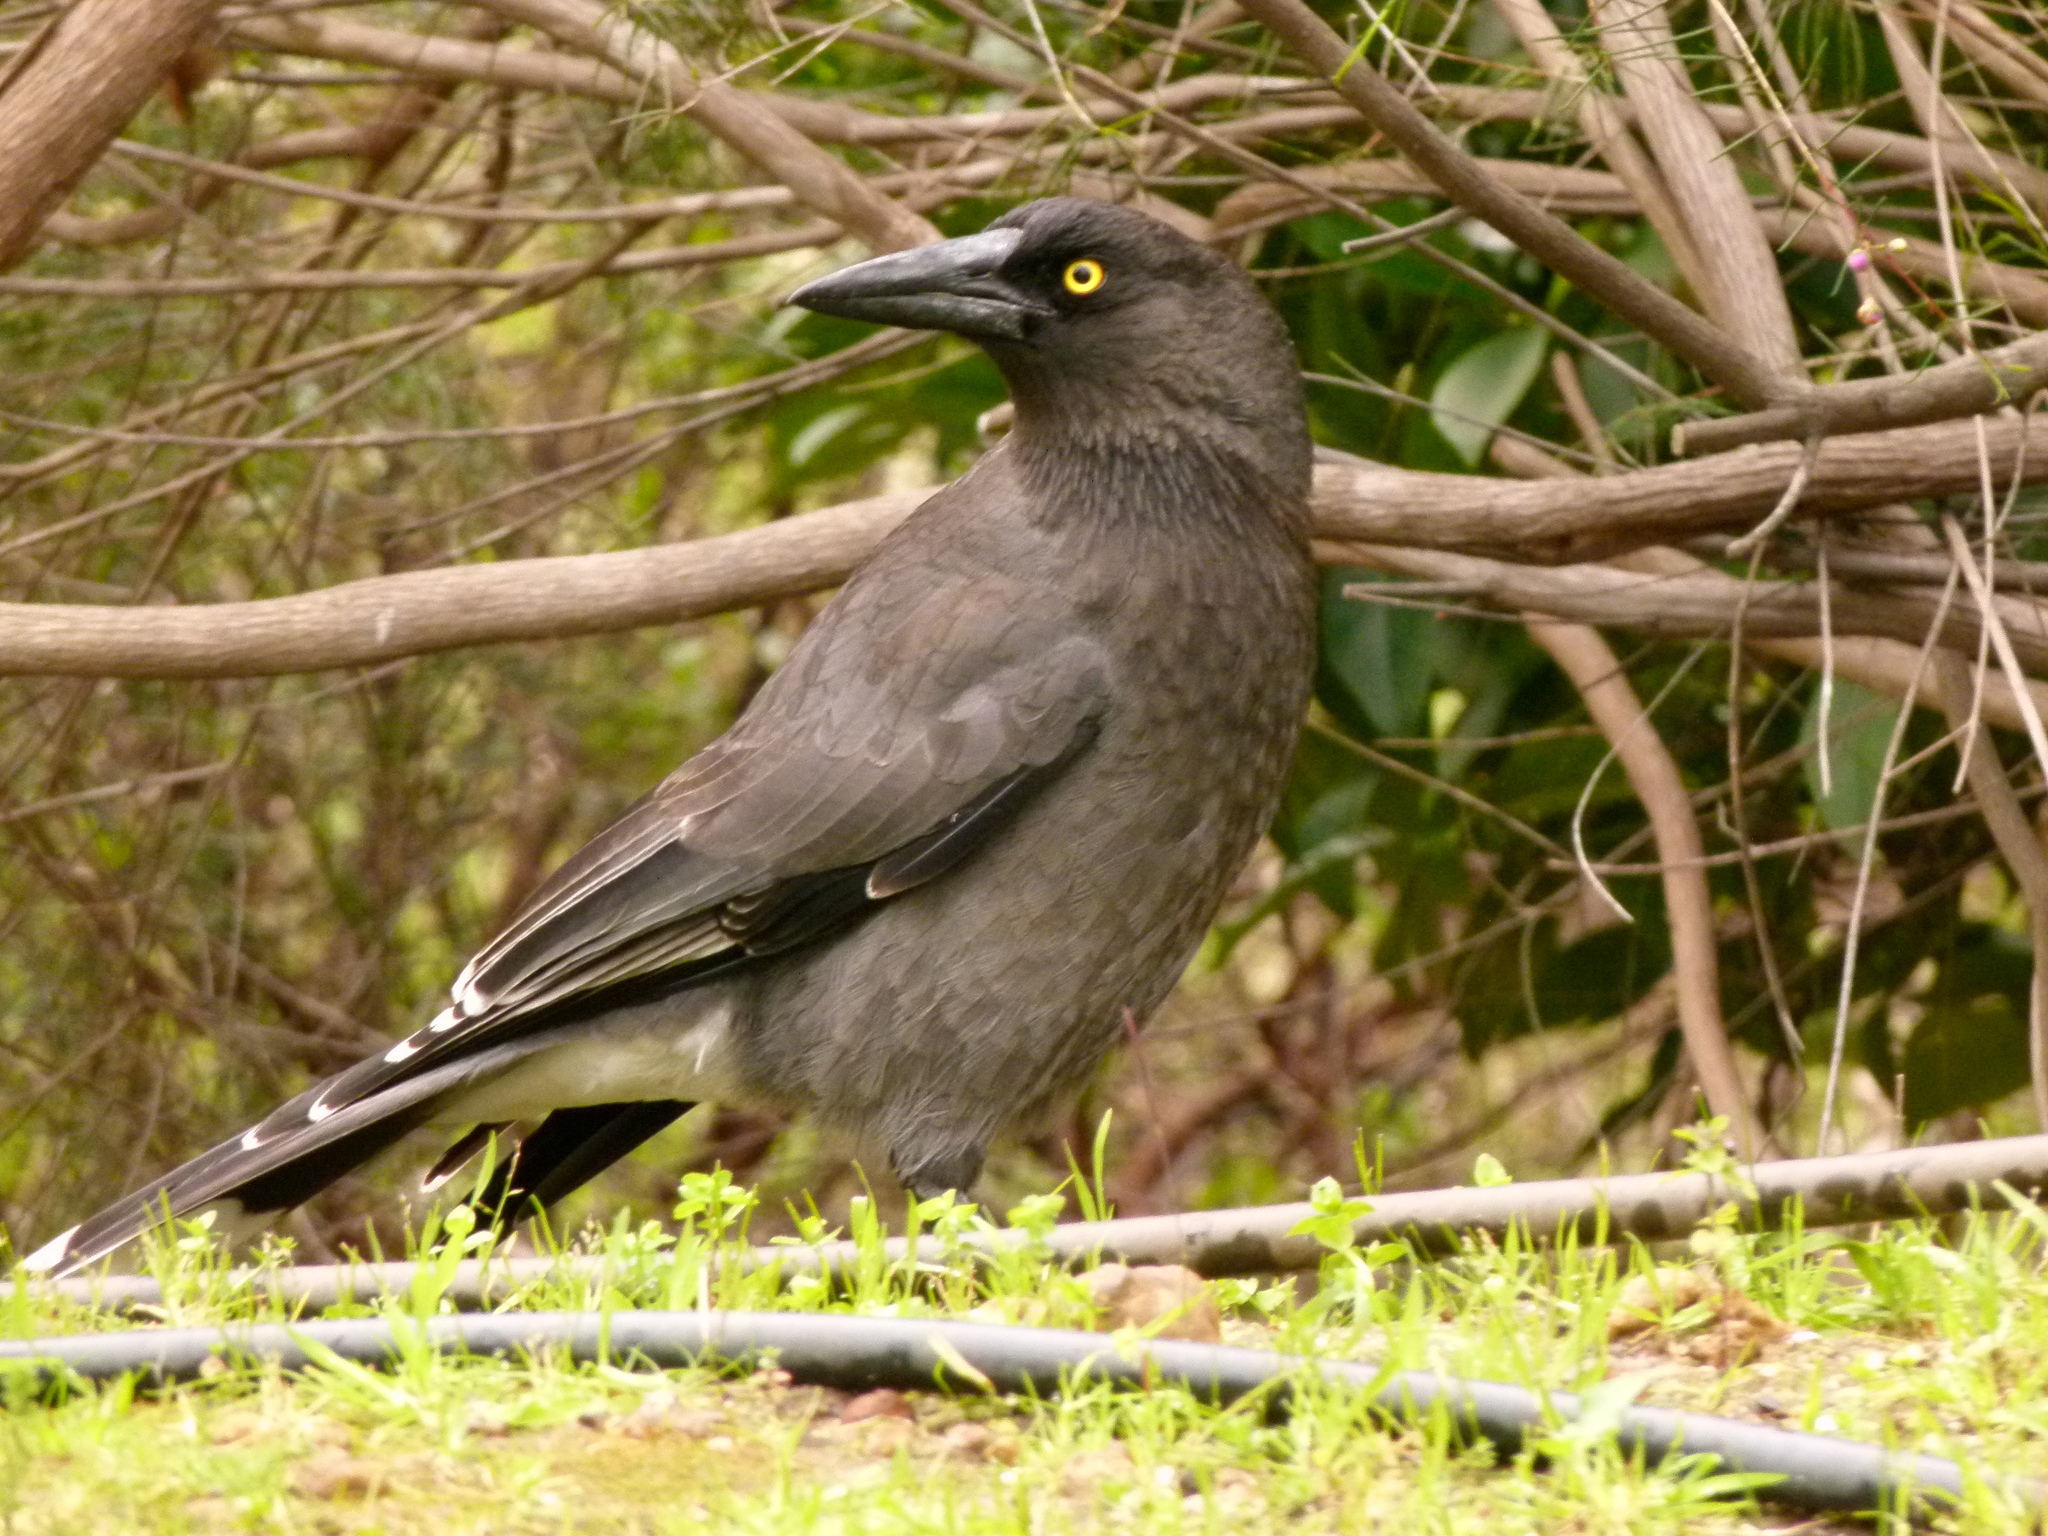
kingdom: Animalia
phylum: Chordata
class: Aves
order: Passeriformes
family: Cracticidae
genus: Strepera
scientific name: Strepera versicolor
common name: Grey currawong
